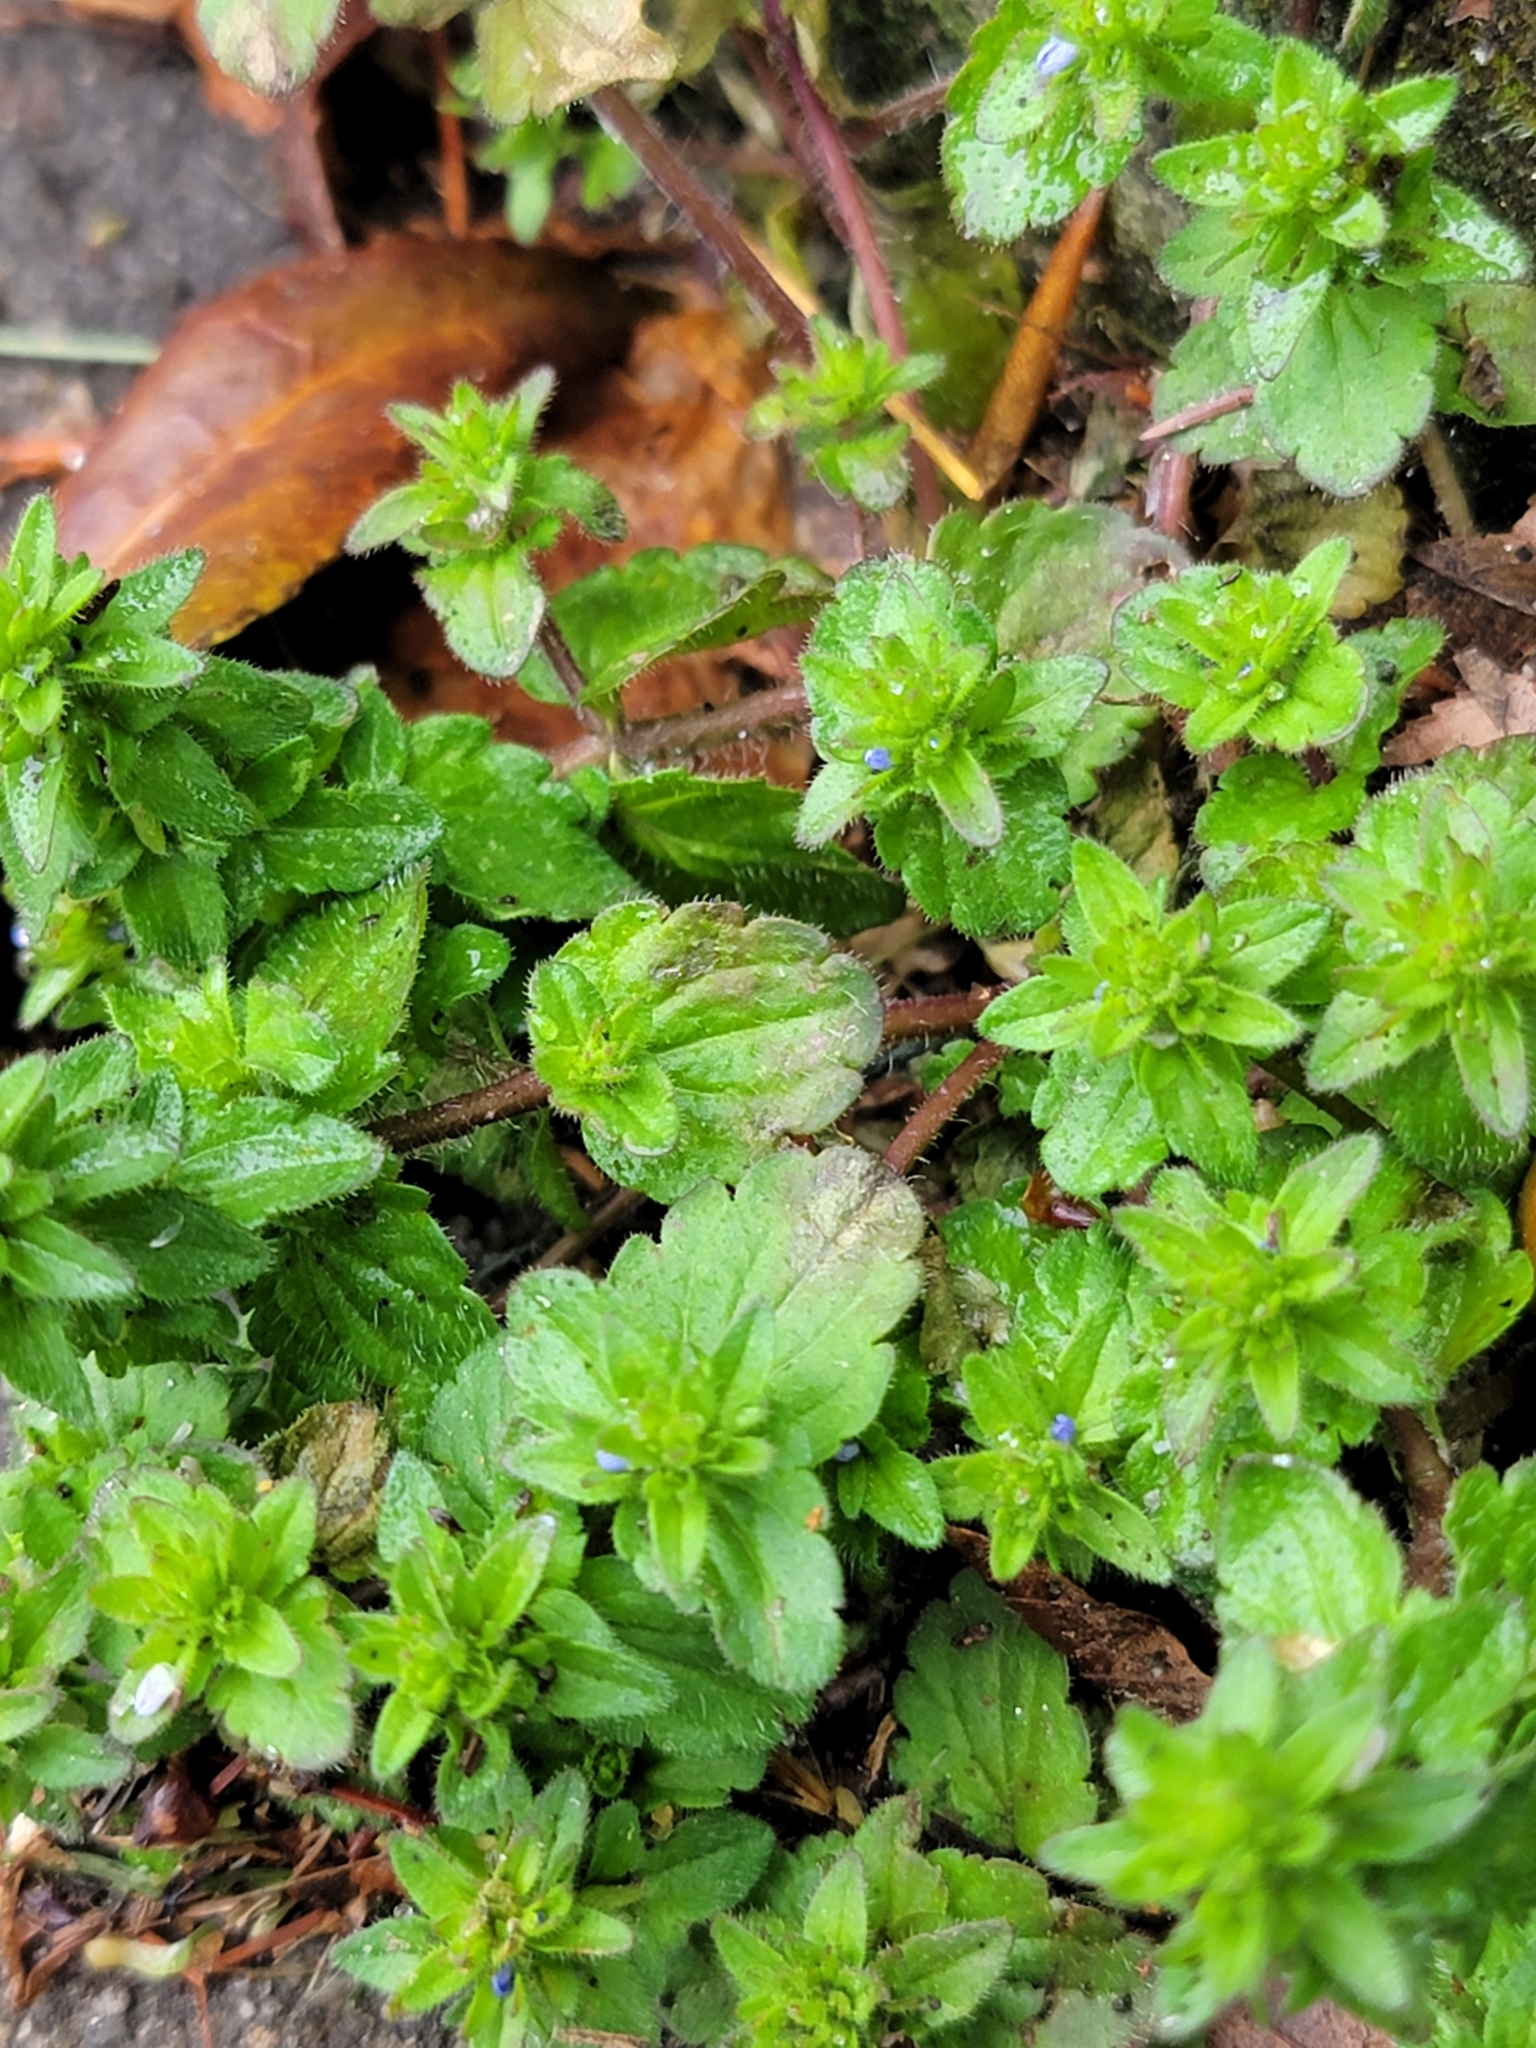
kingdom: Plantae
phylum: Tracheophyta
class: Magnoliopsida
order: Lamiales
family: Plantaginaceae
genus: Veronica
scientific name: Veronica arvensis
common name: Corn speedwell
